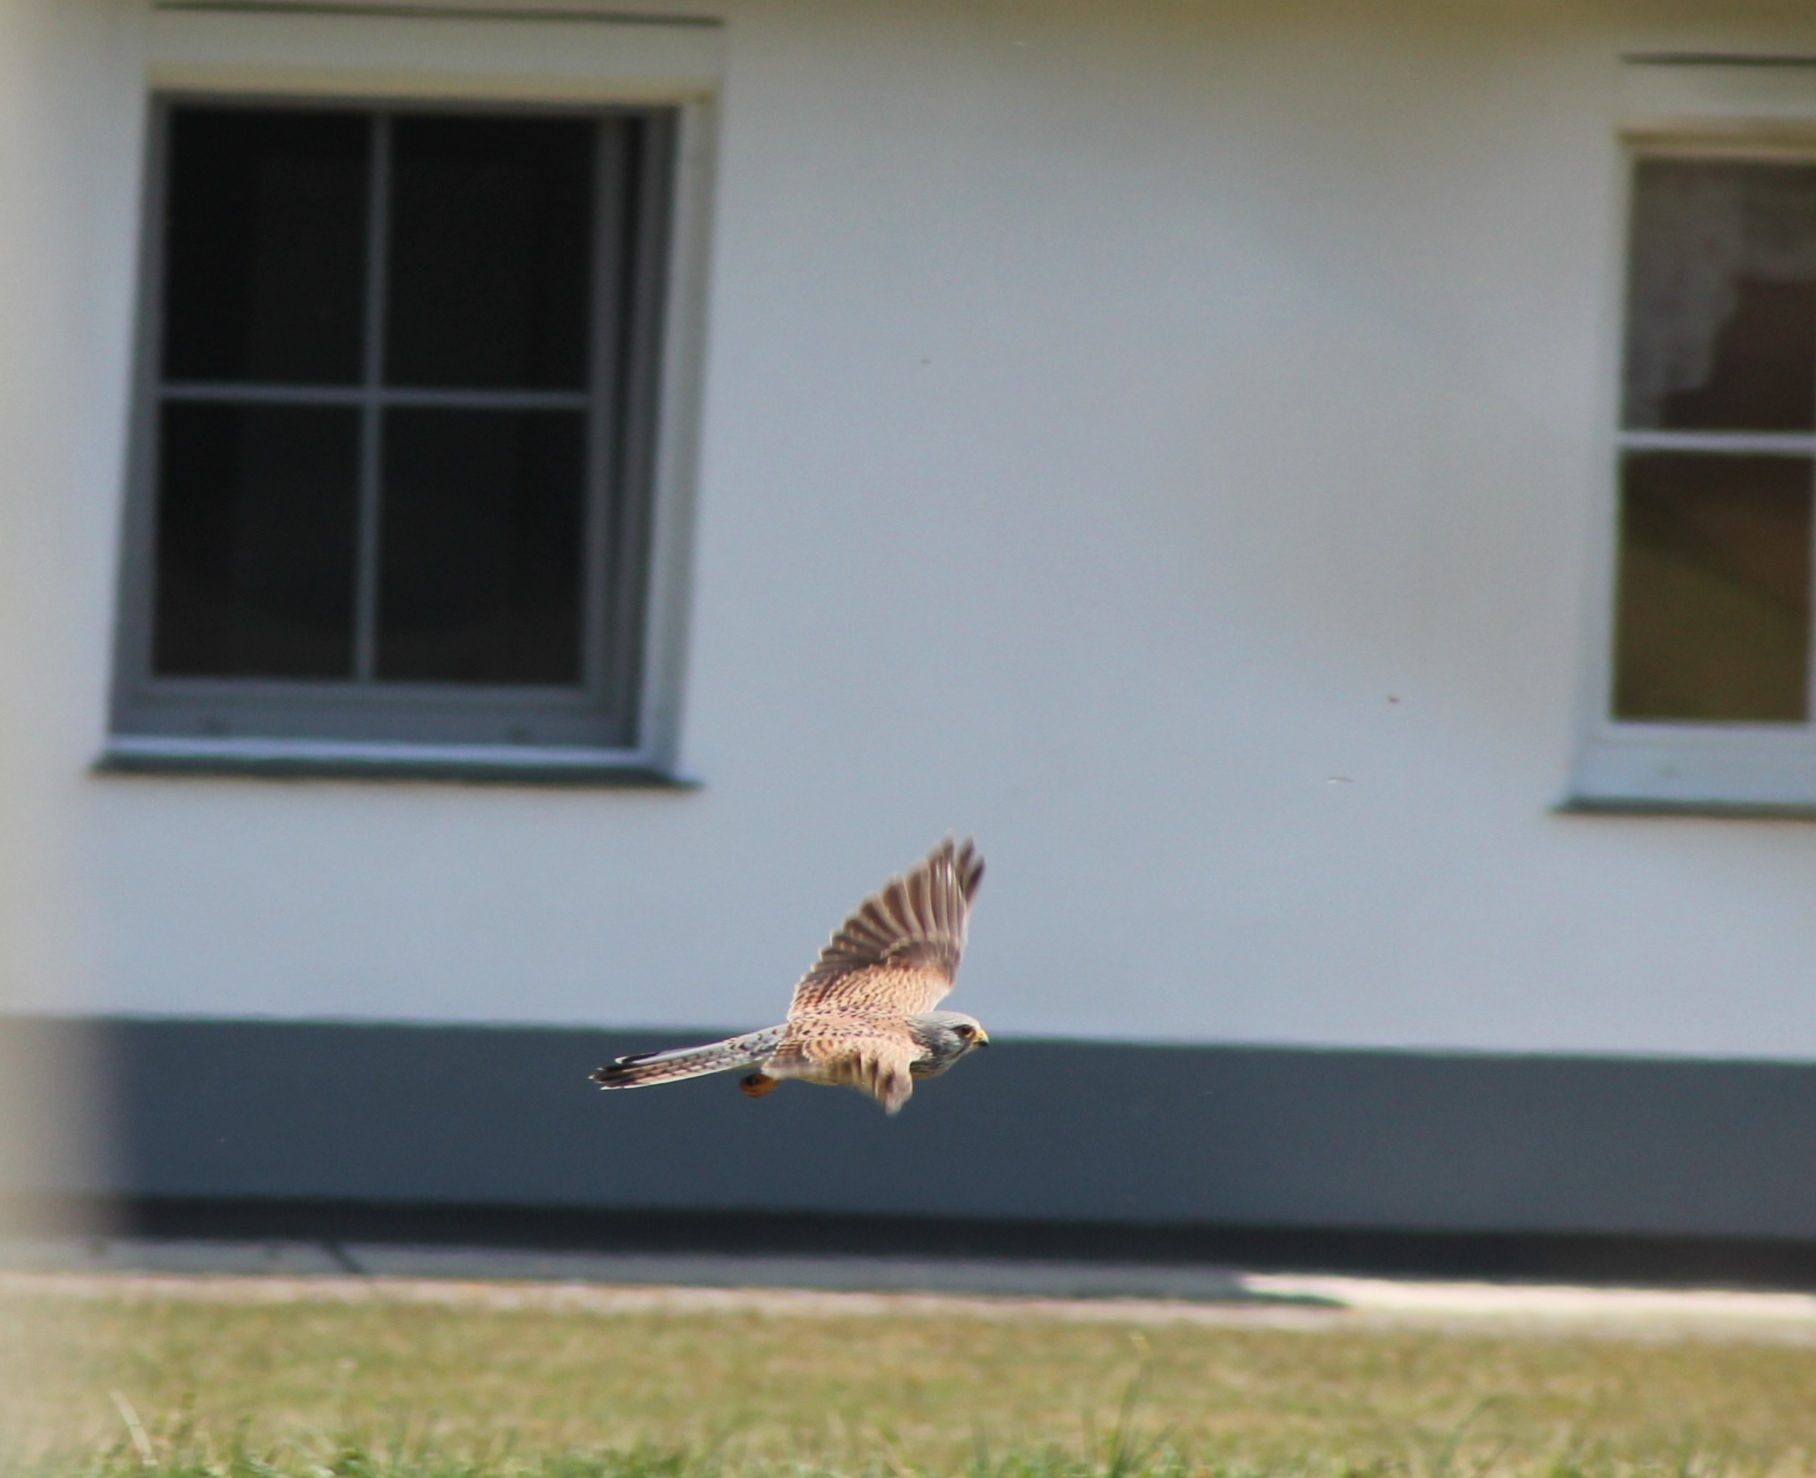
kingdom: Animalia
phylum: Chordata
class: Aves
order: Falconiformes
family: Falconidae
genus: Falco
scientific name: Falco tinnunculus
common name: Common kestrel
